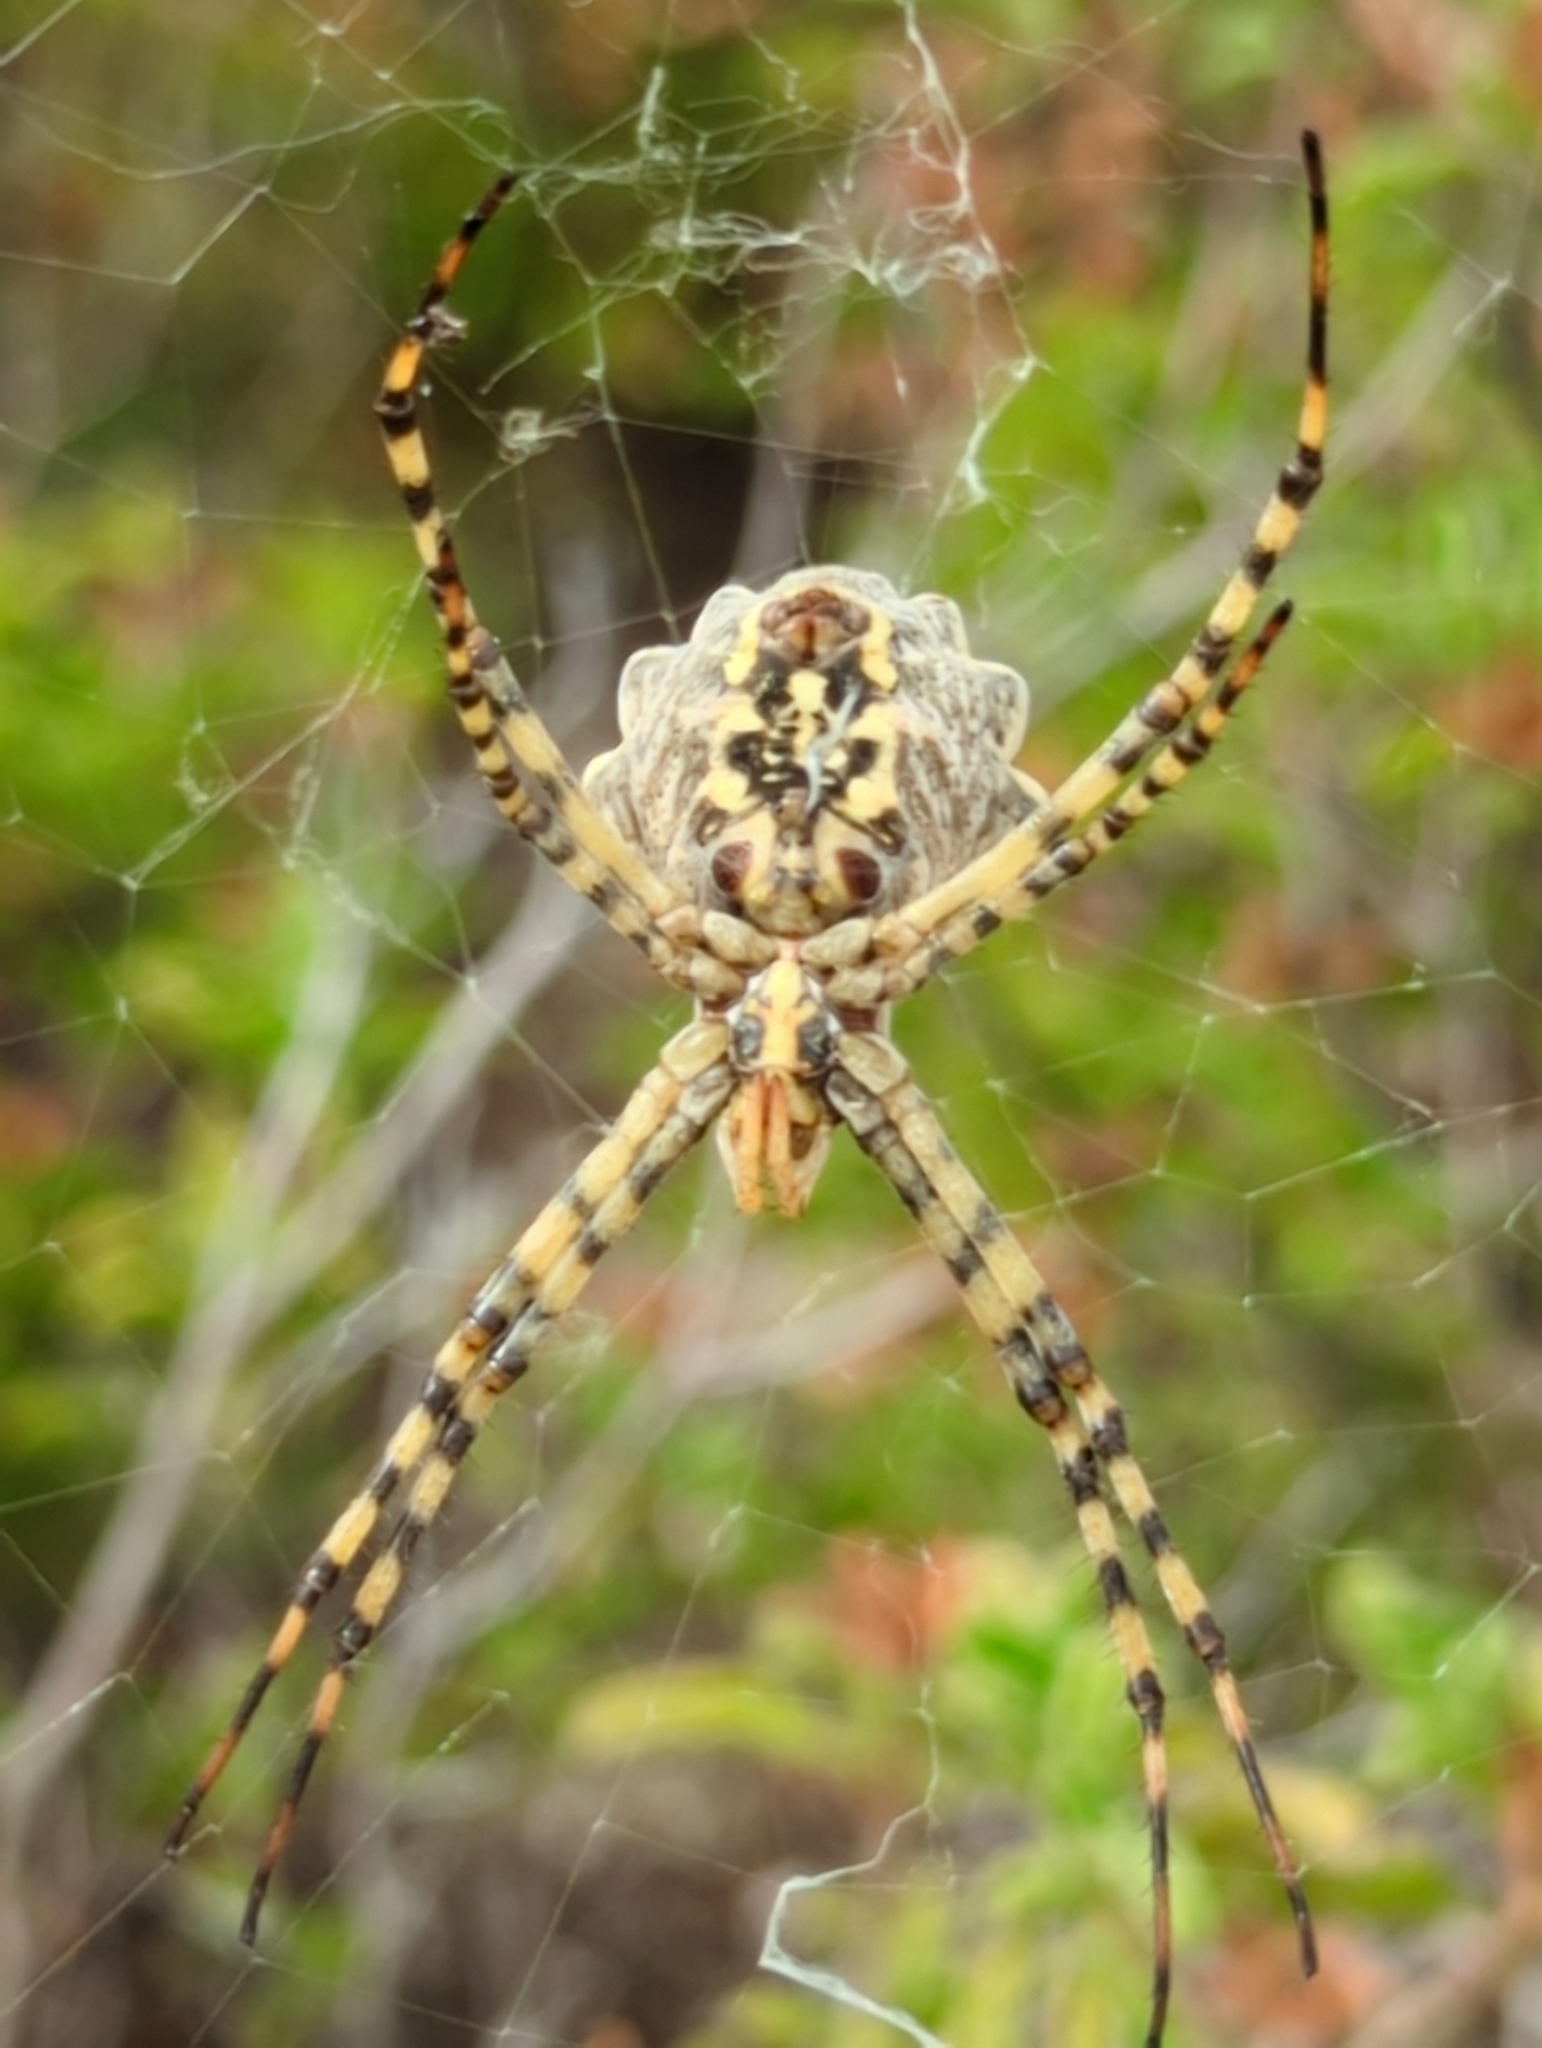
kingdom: Animalia
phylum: Arthropoda
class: Arachnida
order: Araneae
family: Araneidae
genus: Argiope
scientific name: Argiope lobata
